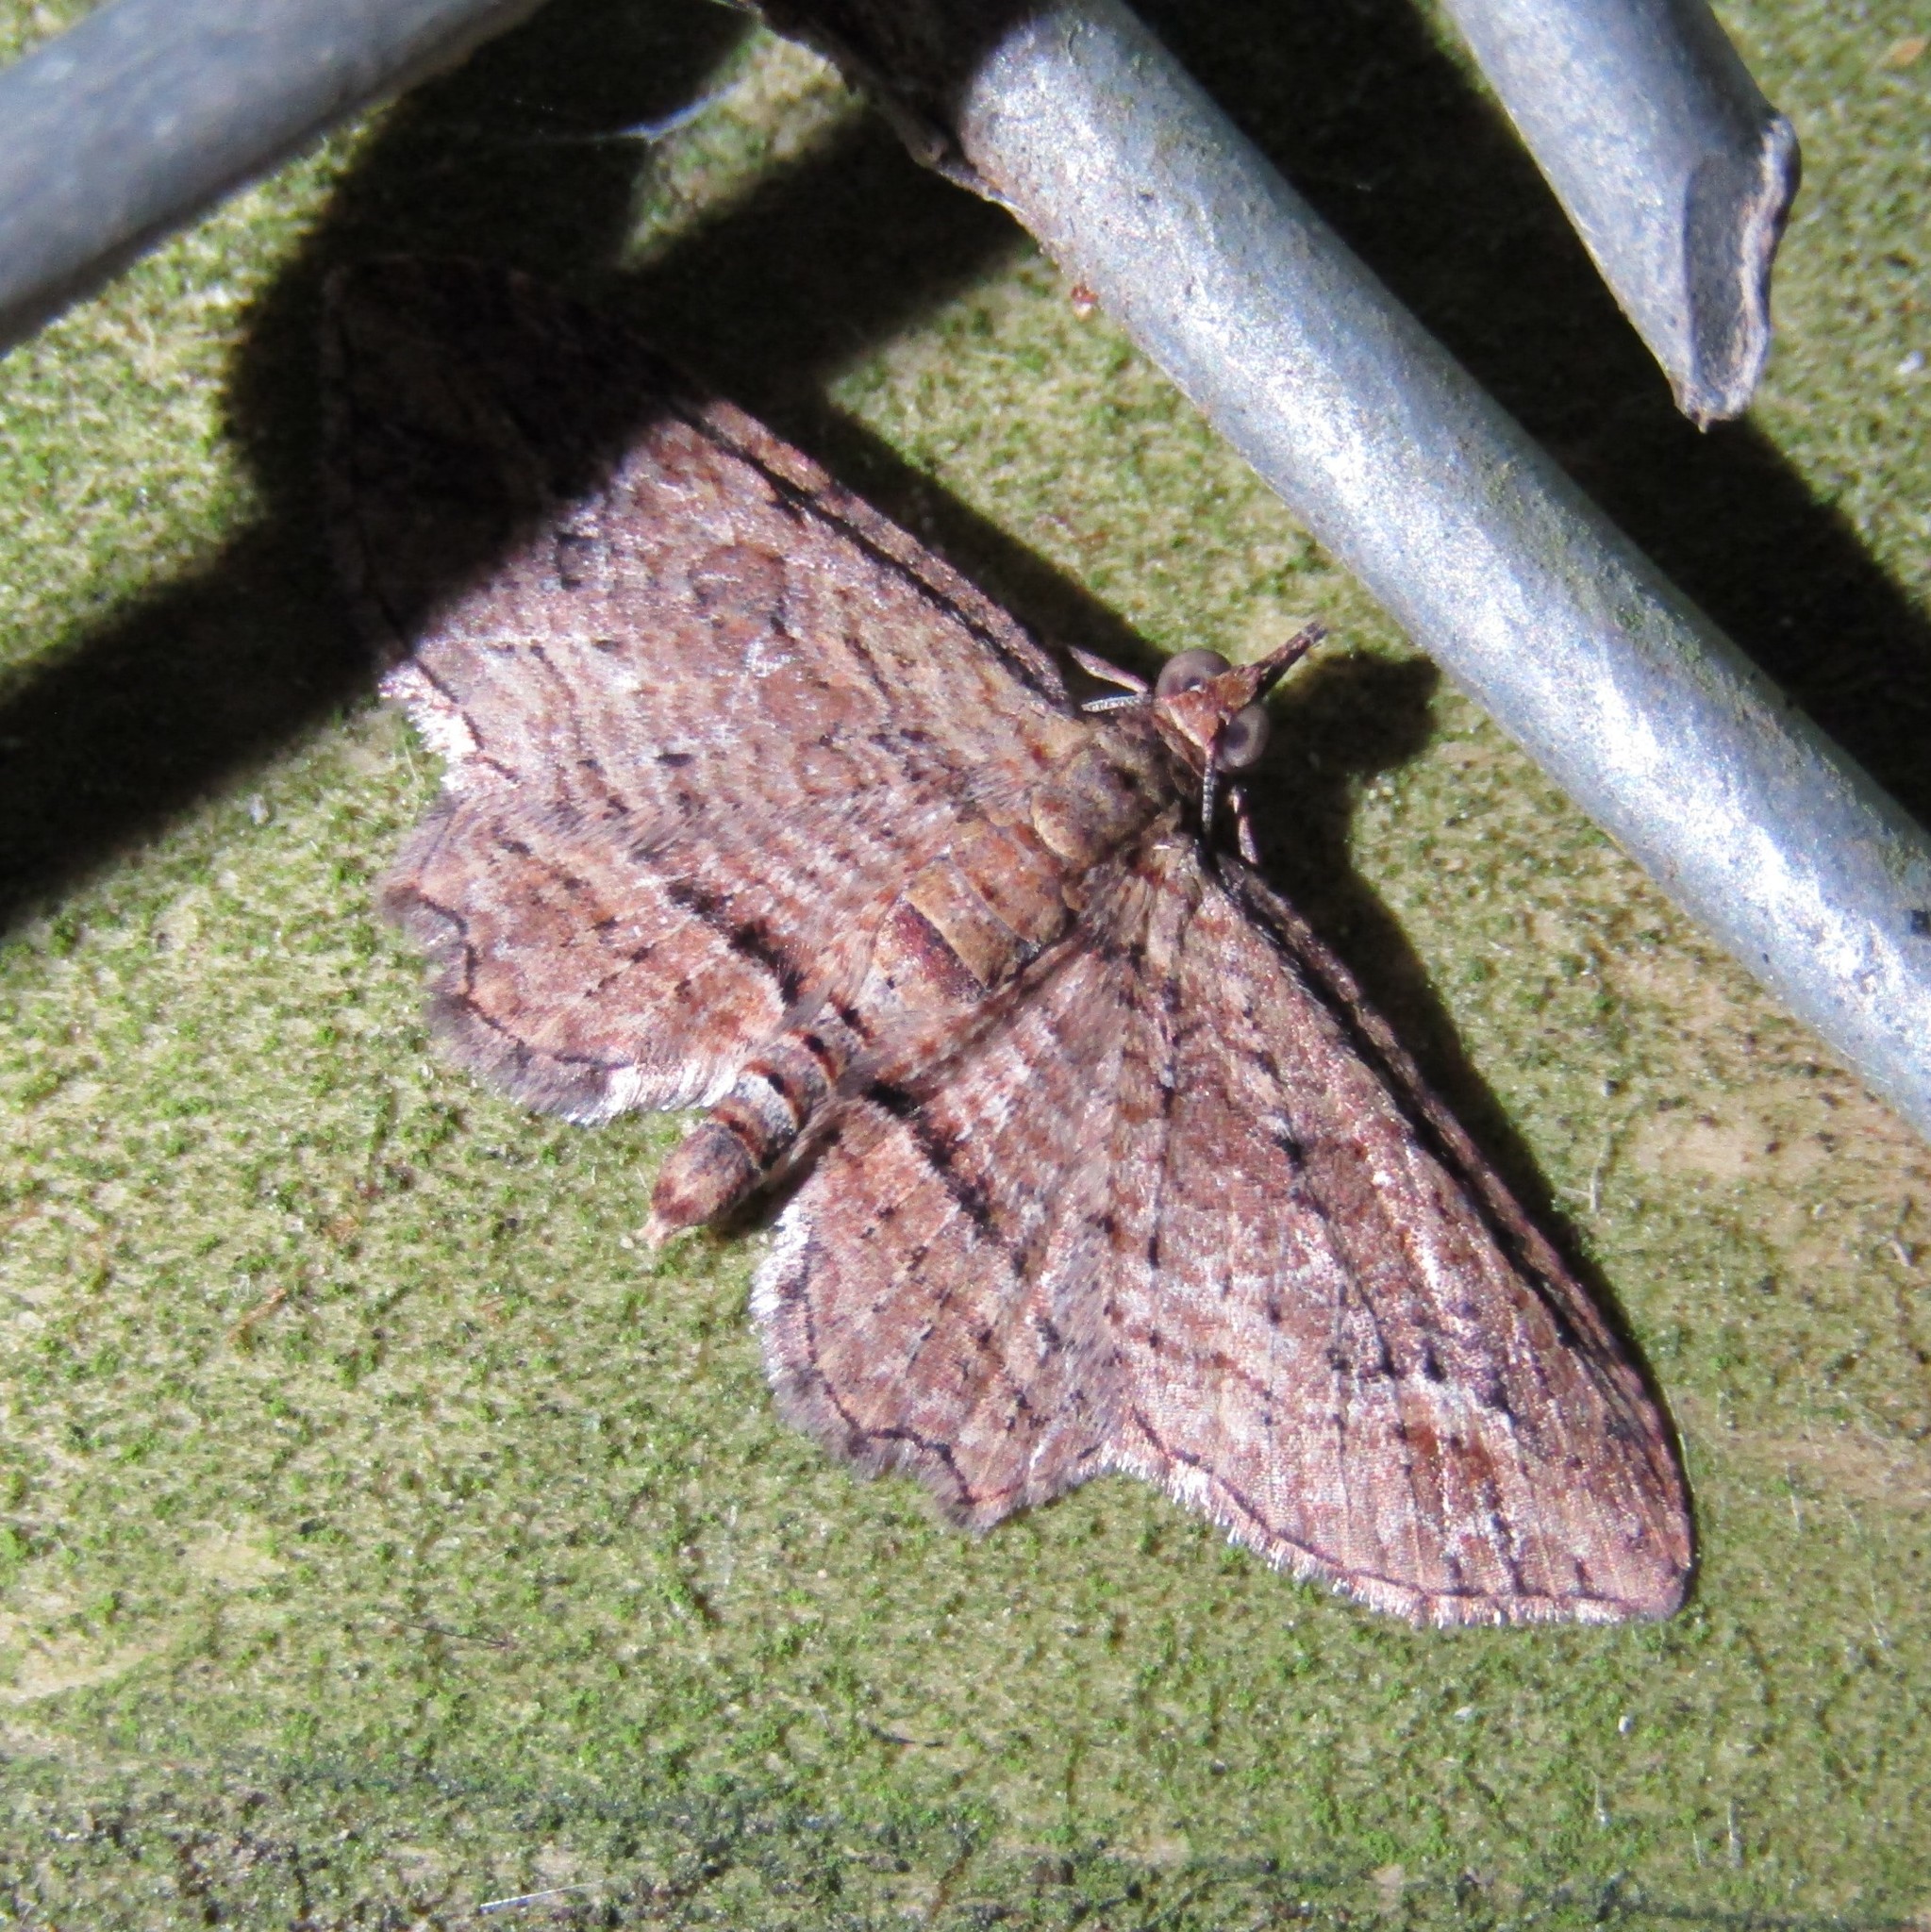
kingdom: Animalia
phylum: Arthropoda
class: Insecta
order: Lepidoptera
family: Geometridae
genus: Chloroclystis
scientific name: Chloroclystis filata
